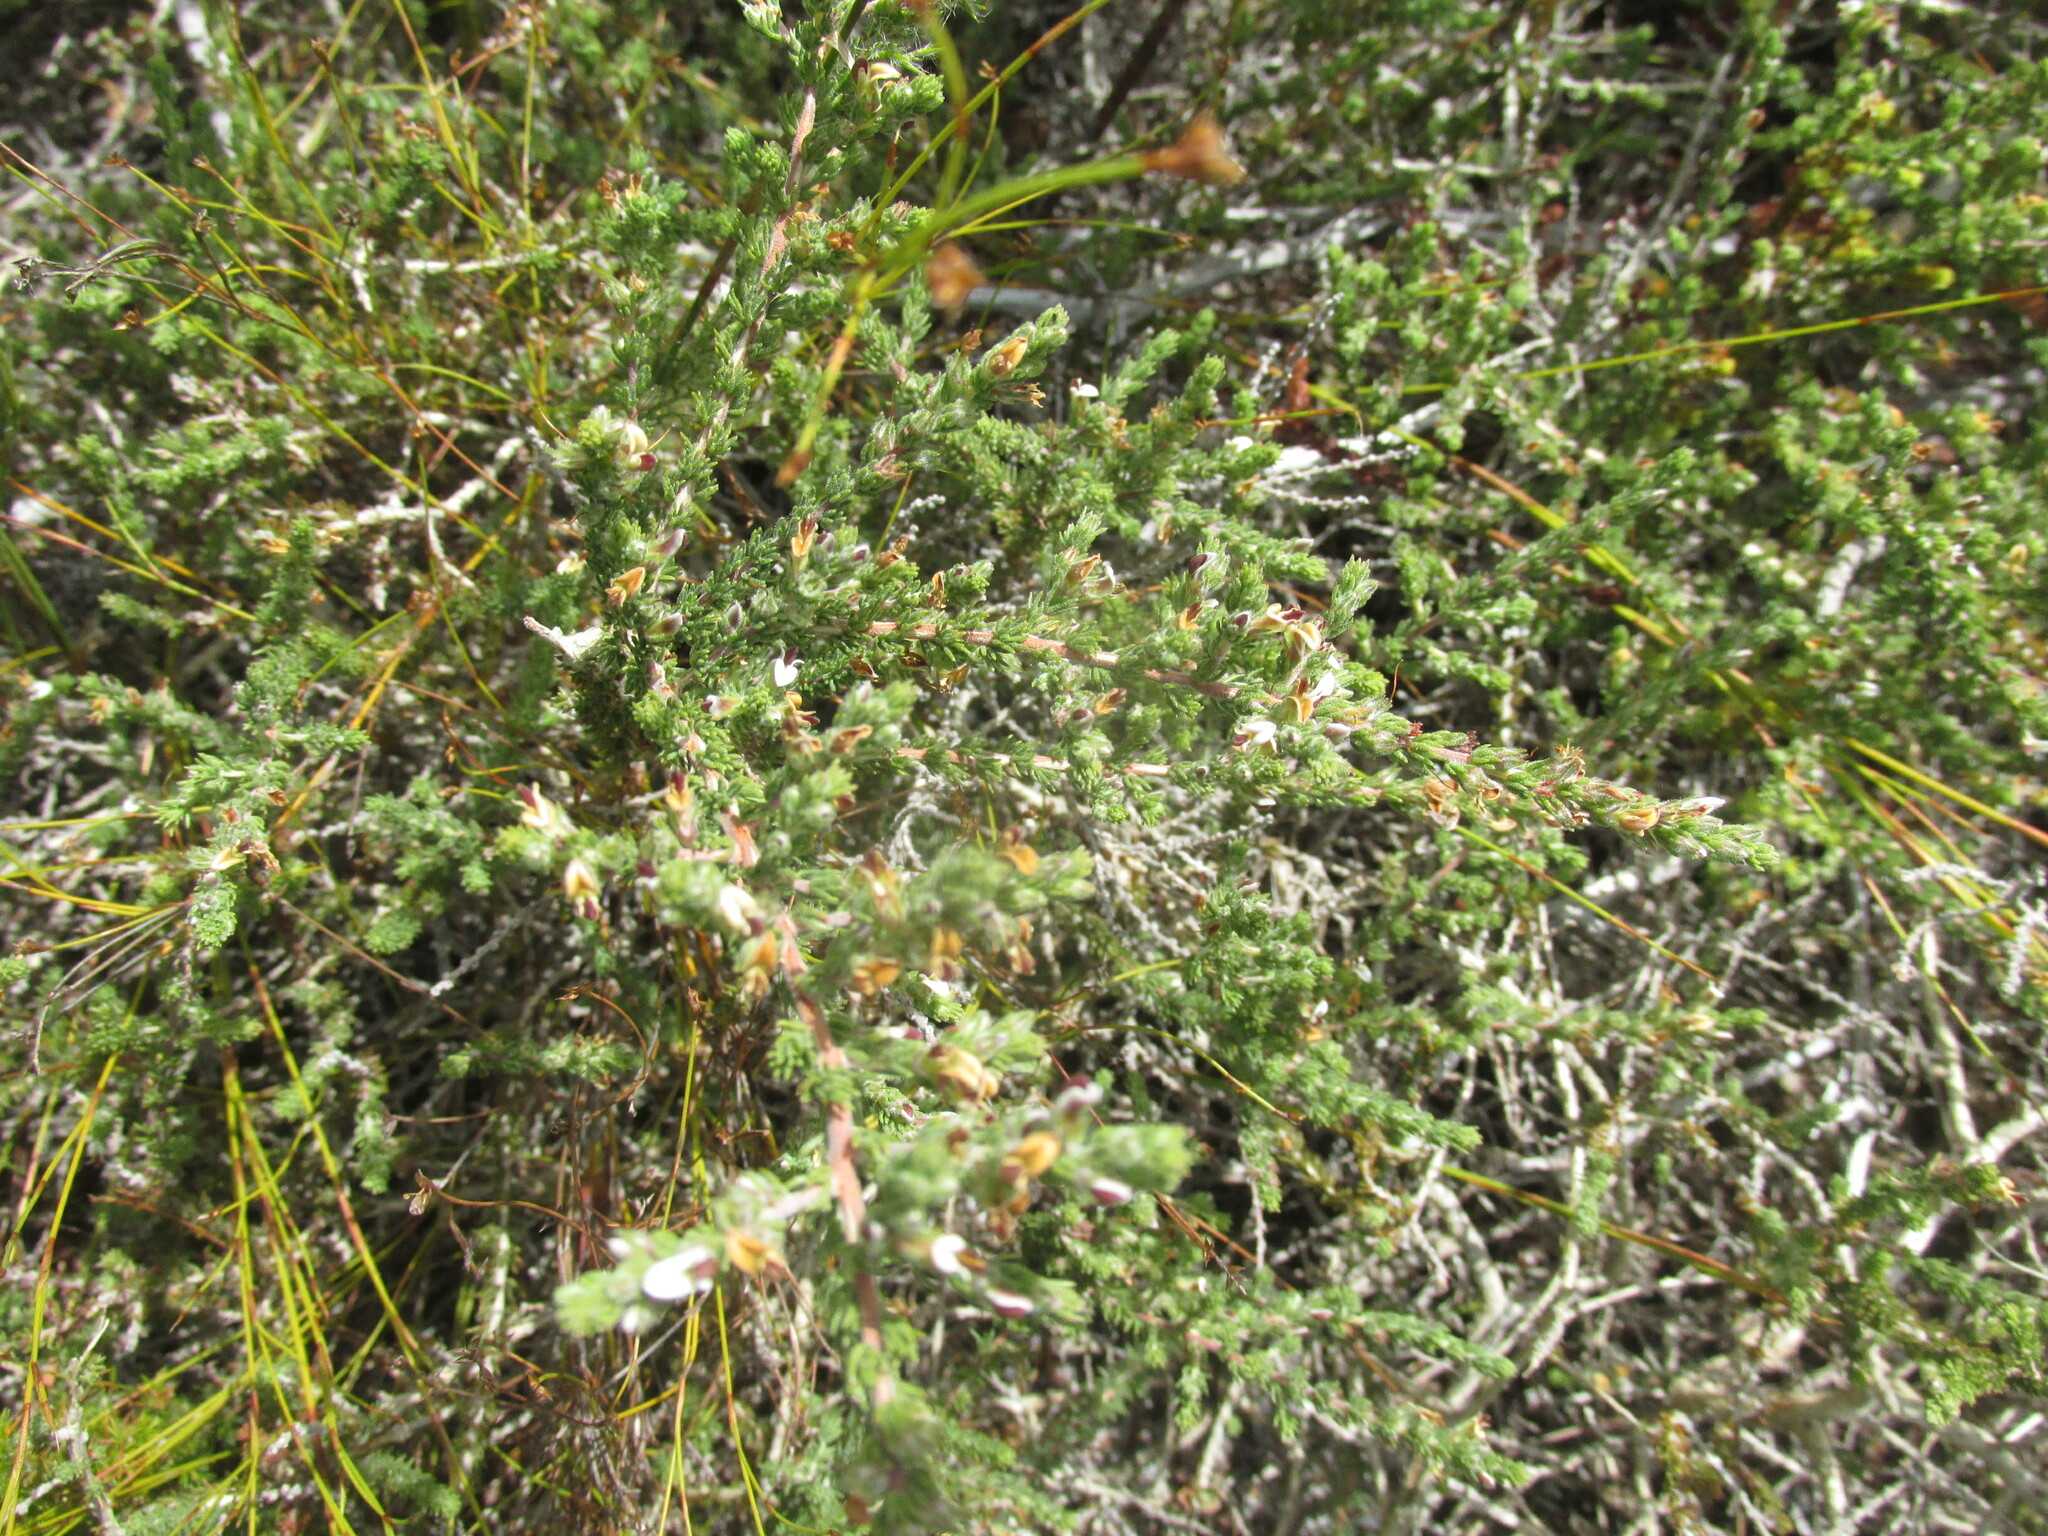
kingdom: Plantae
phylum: Tracheophyta
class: Magnoliopsida
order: Fabales
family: Fabaceae
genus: Aspalathus
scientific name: Aspalathus hispida
